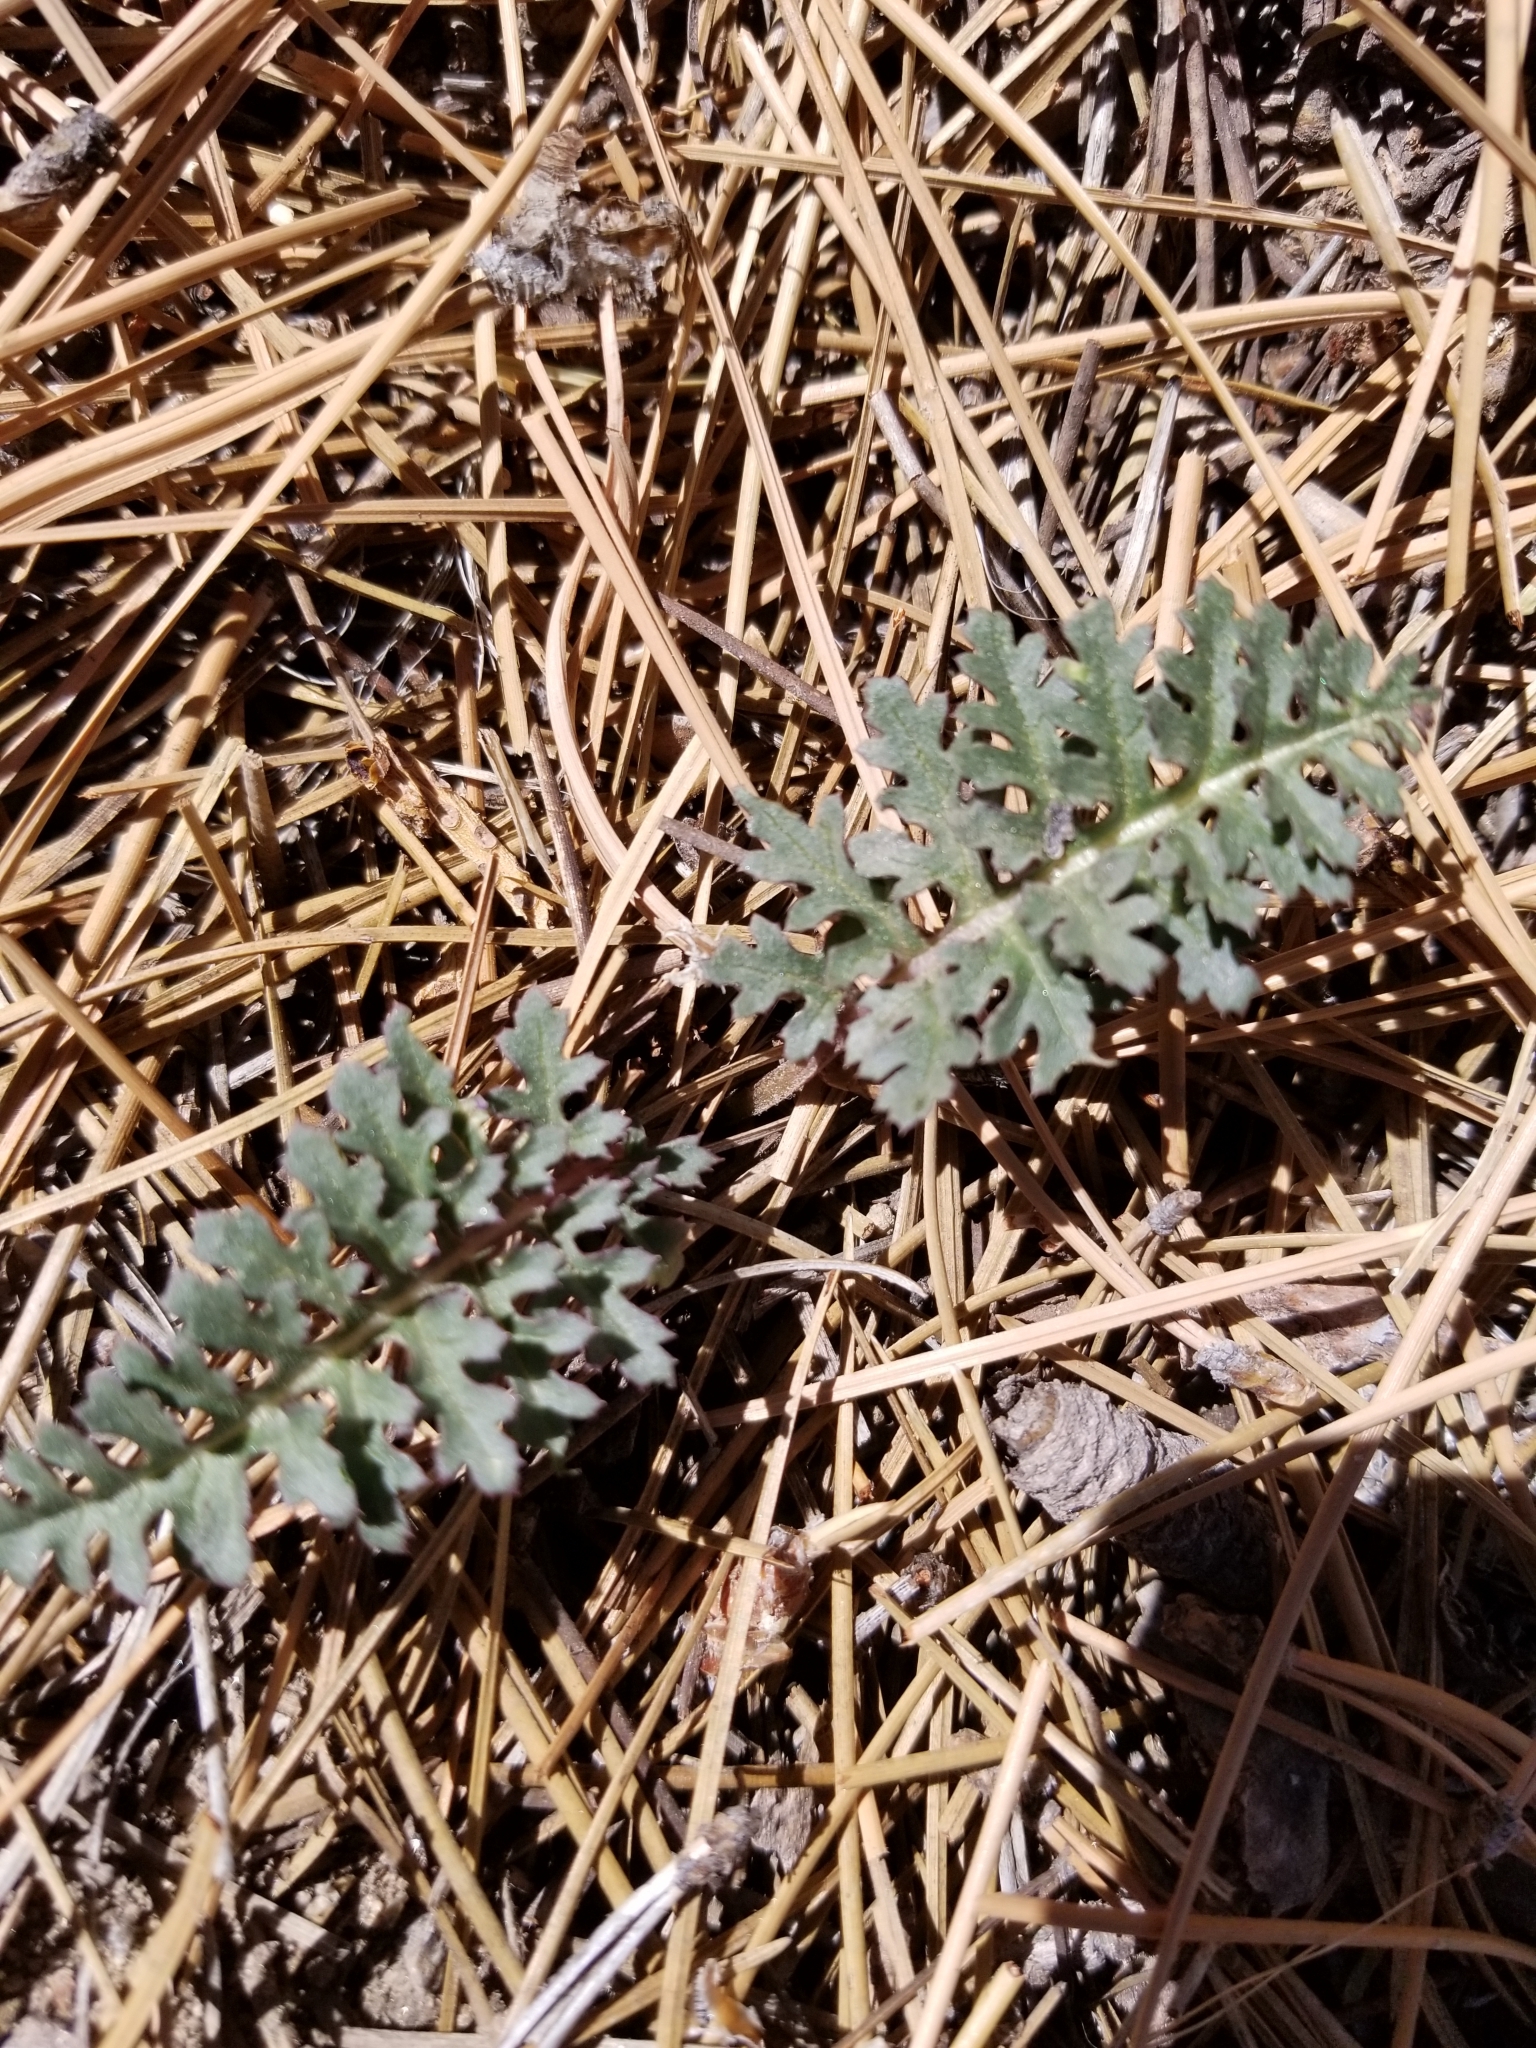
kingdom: Plantae
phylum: Tracheophyta
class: Magnoliopsida
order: Lamiales
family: Orobanchaceae
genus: Pedicularis
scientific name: Pedicularis semibarbata
